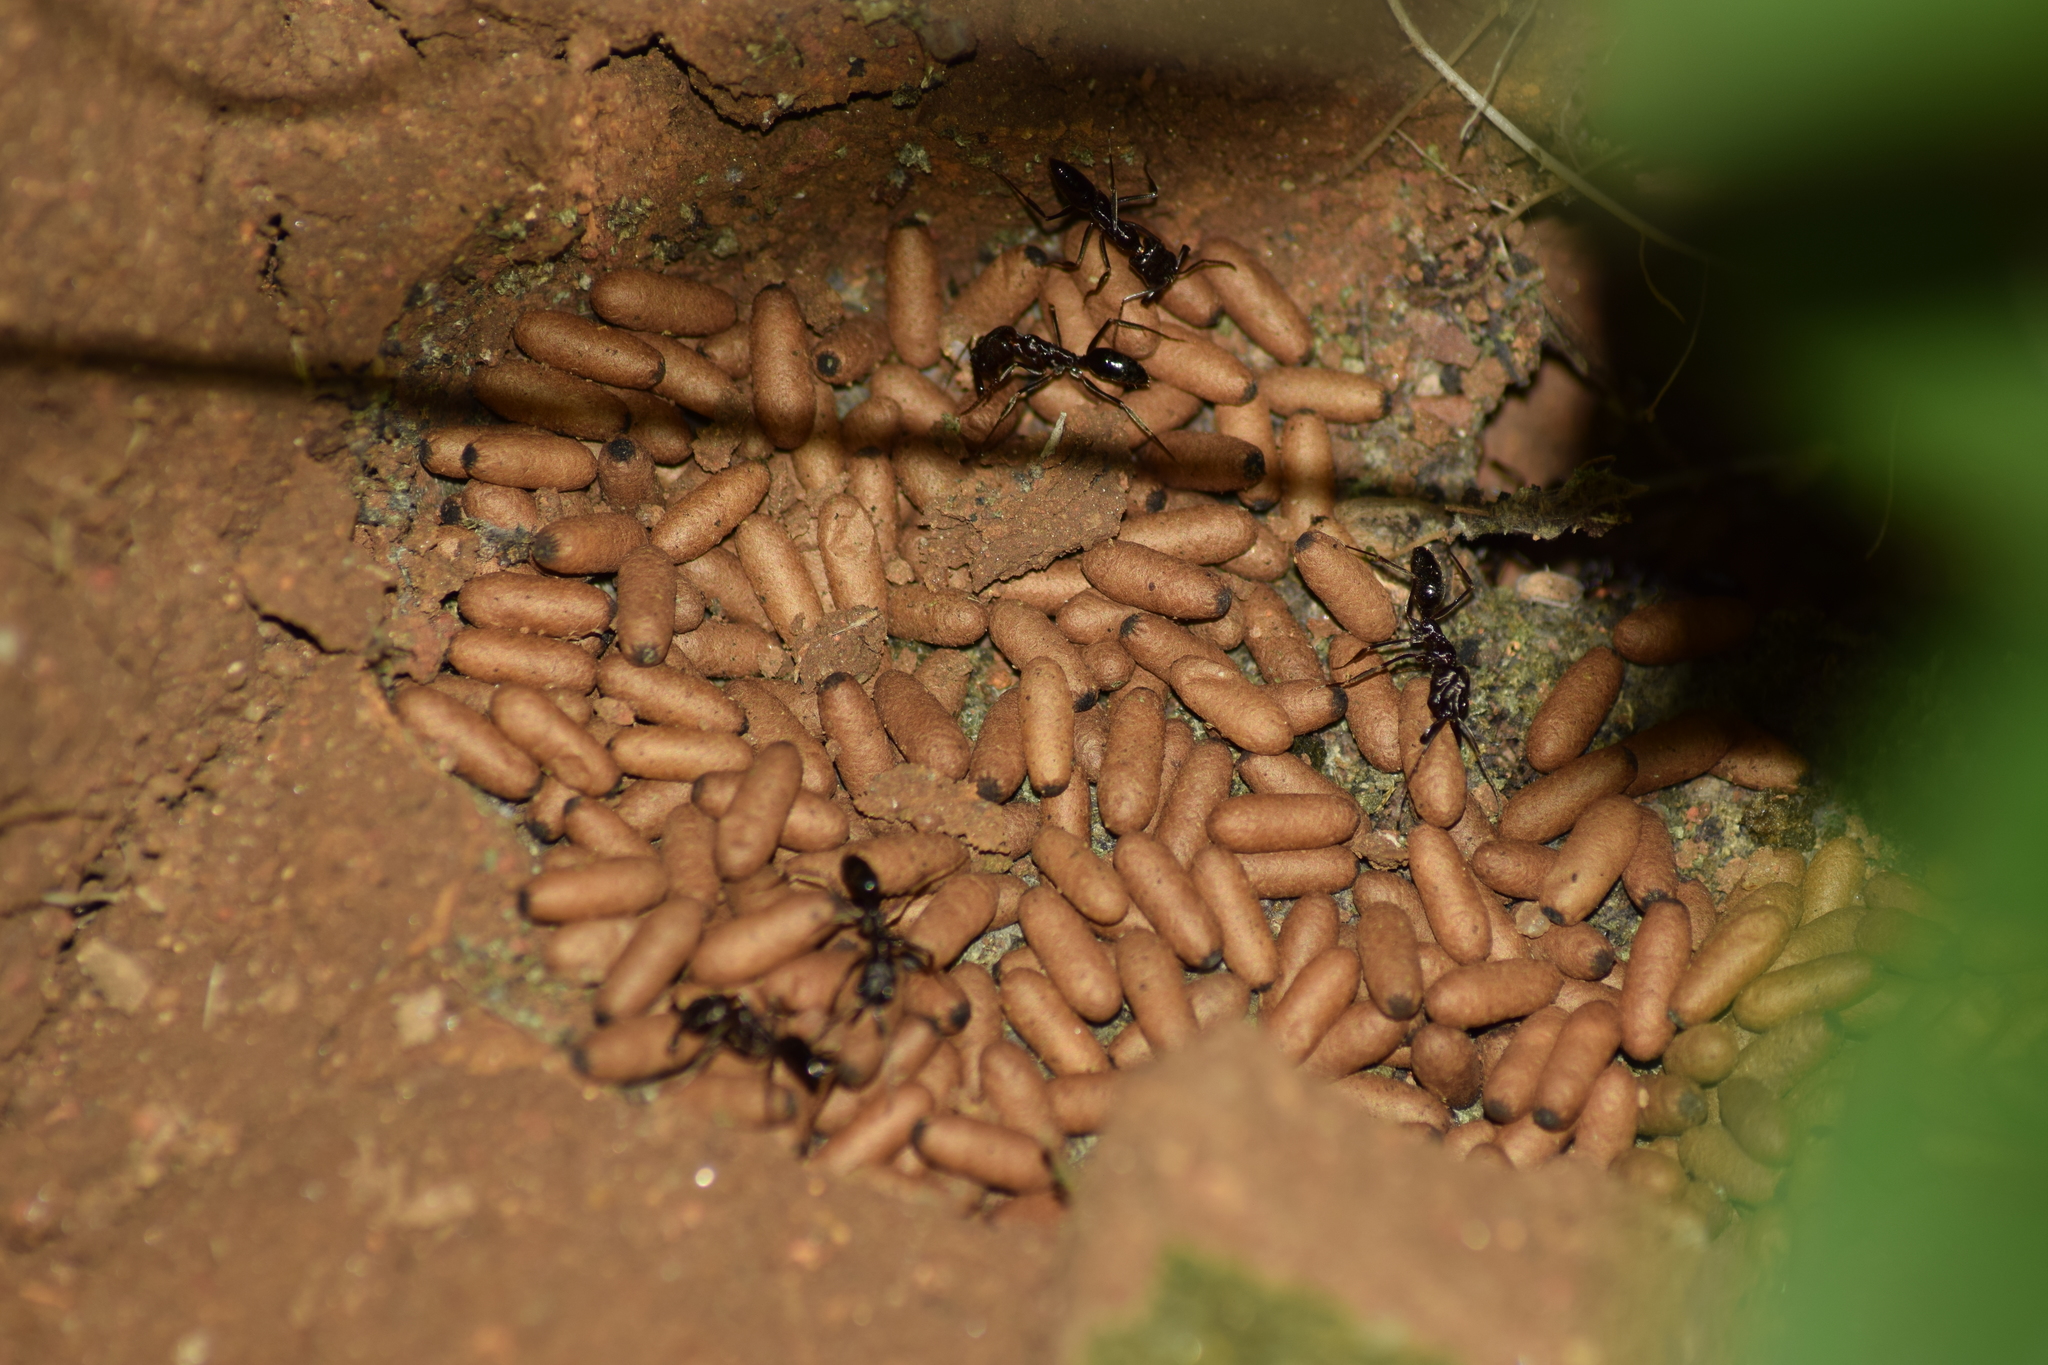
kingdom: Animalia
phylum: Arthropoda
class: Insecta
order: Hymenoptera
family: Formicidae
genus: Odontomachus
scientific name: Odontomachus simillimus
